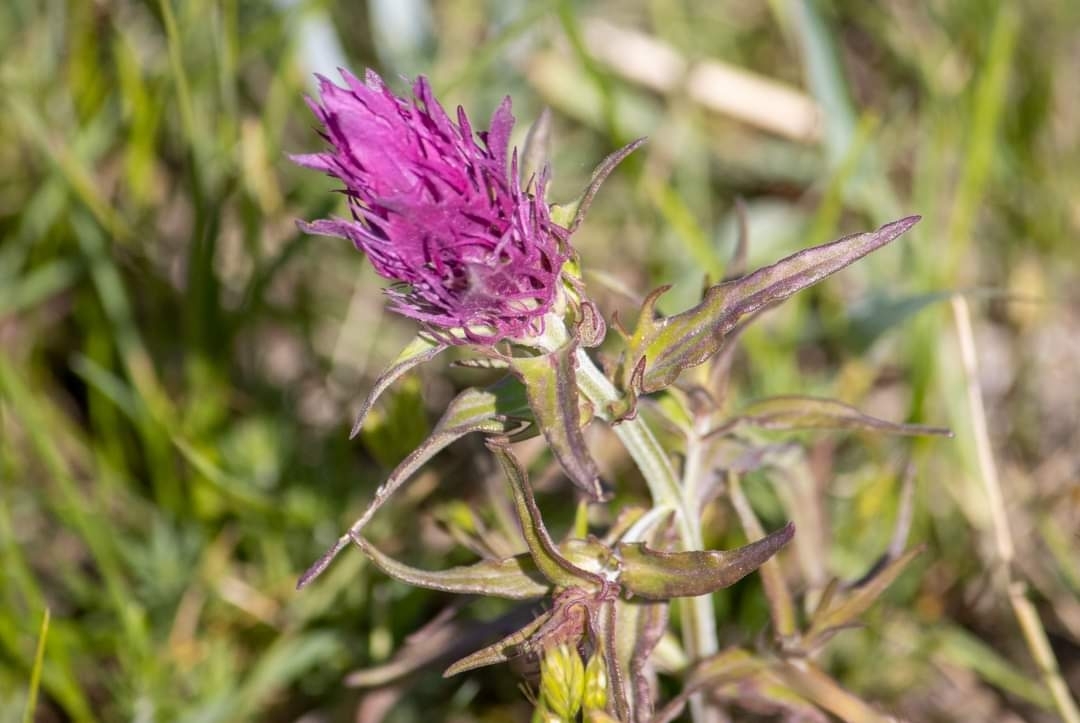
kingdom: Plantae
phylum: Tracheophyta
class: Magnoliopsida
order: Lamiales
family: Orobanchaceae
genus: Melampyrum
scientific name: Melampyrum arvense
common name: Field cow-wheat
